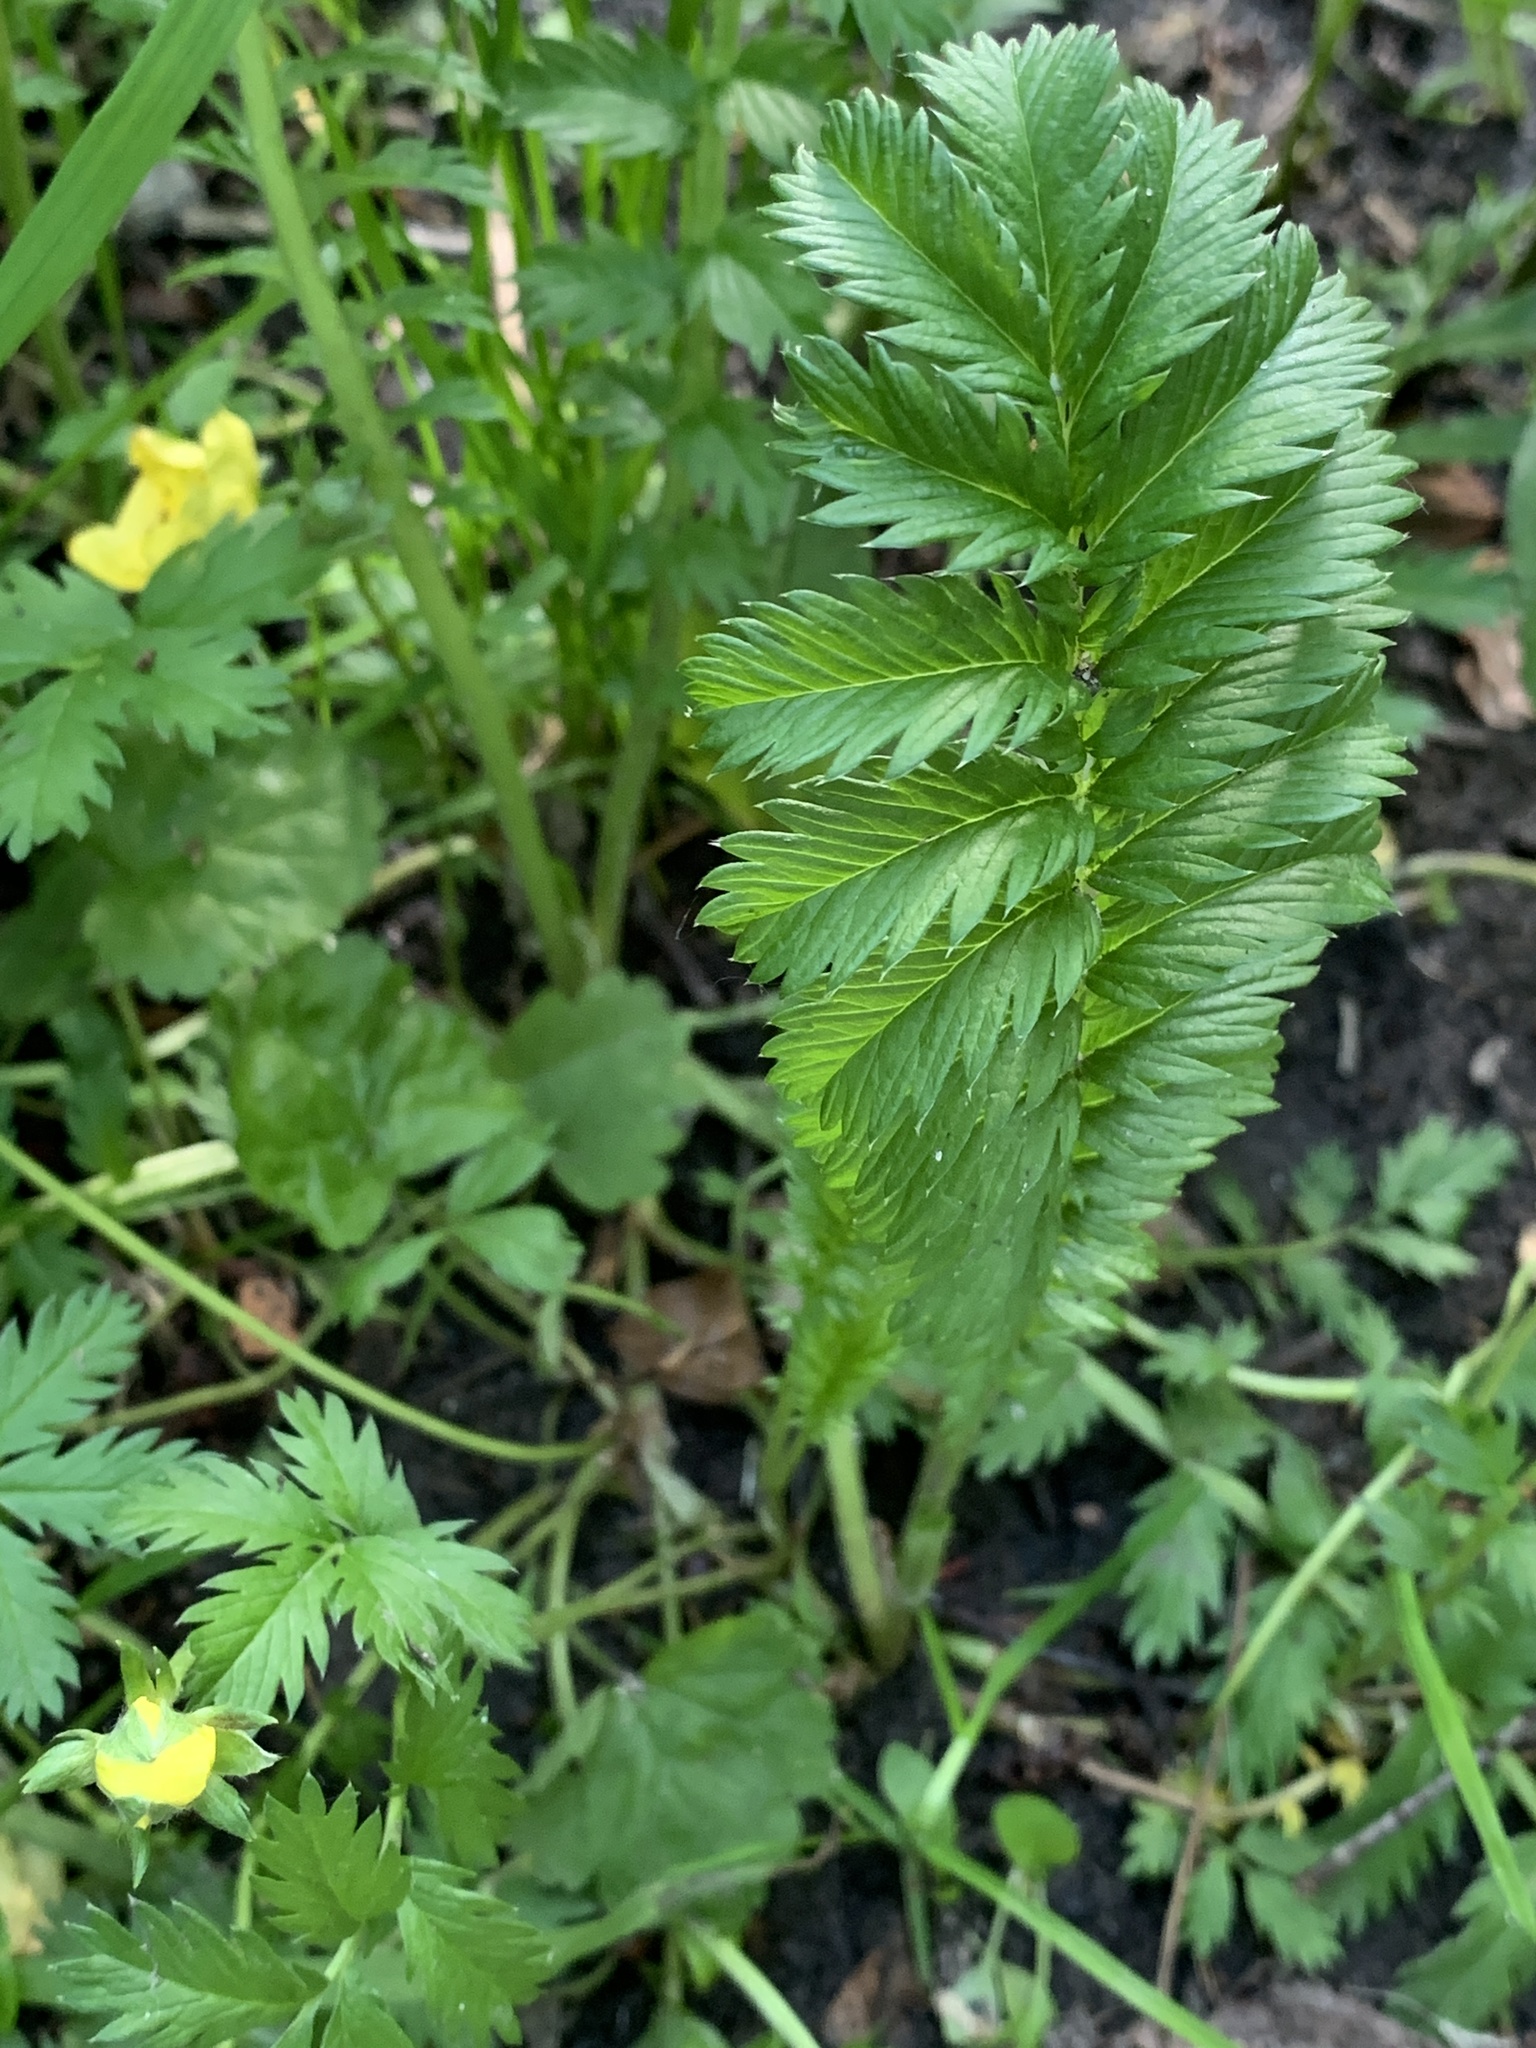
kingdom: Plantae
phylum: Tracheophyta
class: Magnoliopsida
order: Rosales
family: Rosaceae
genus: Argentina
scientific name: Argentina anserina
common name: Common silverweed
